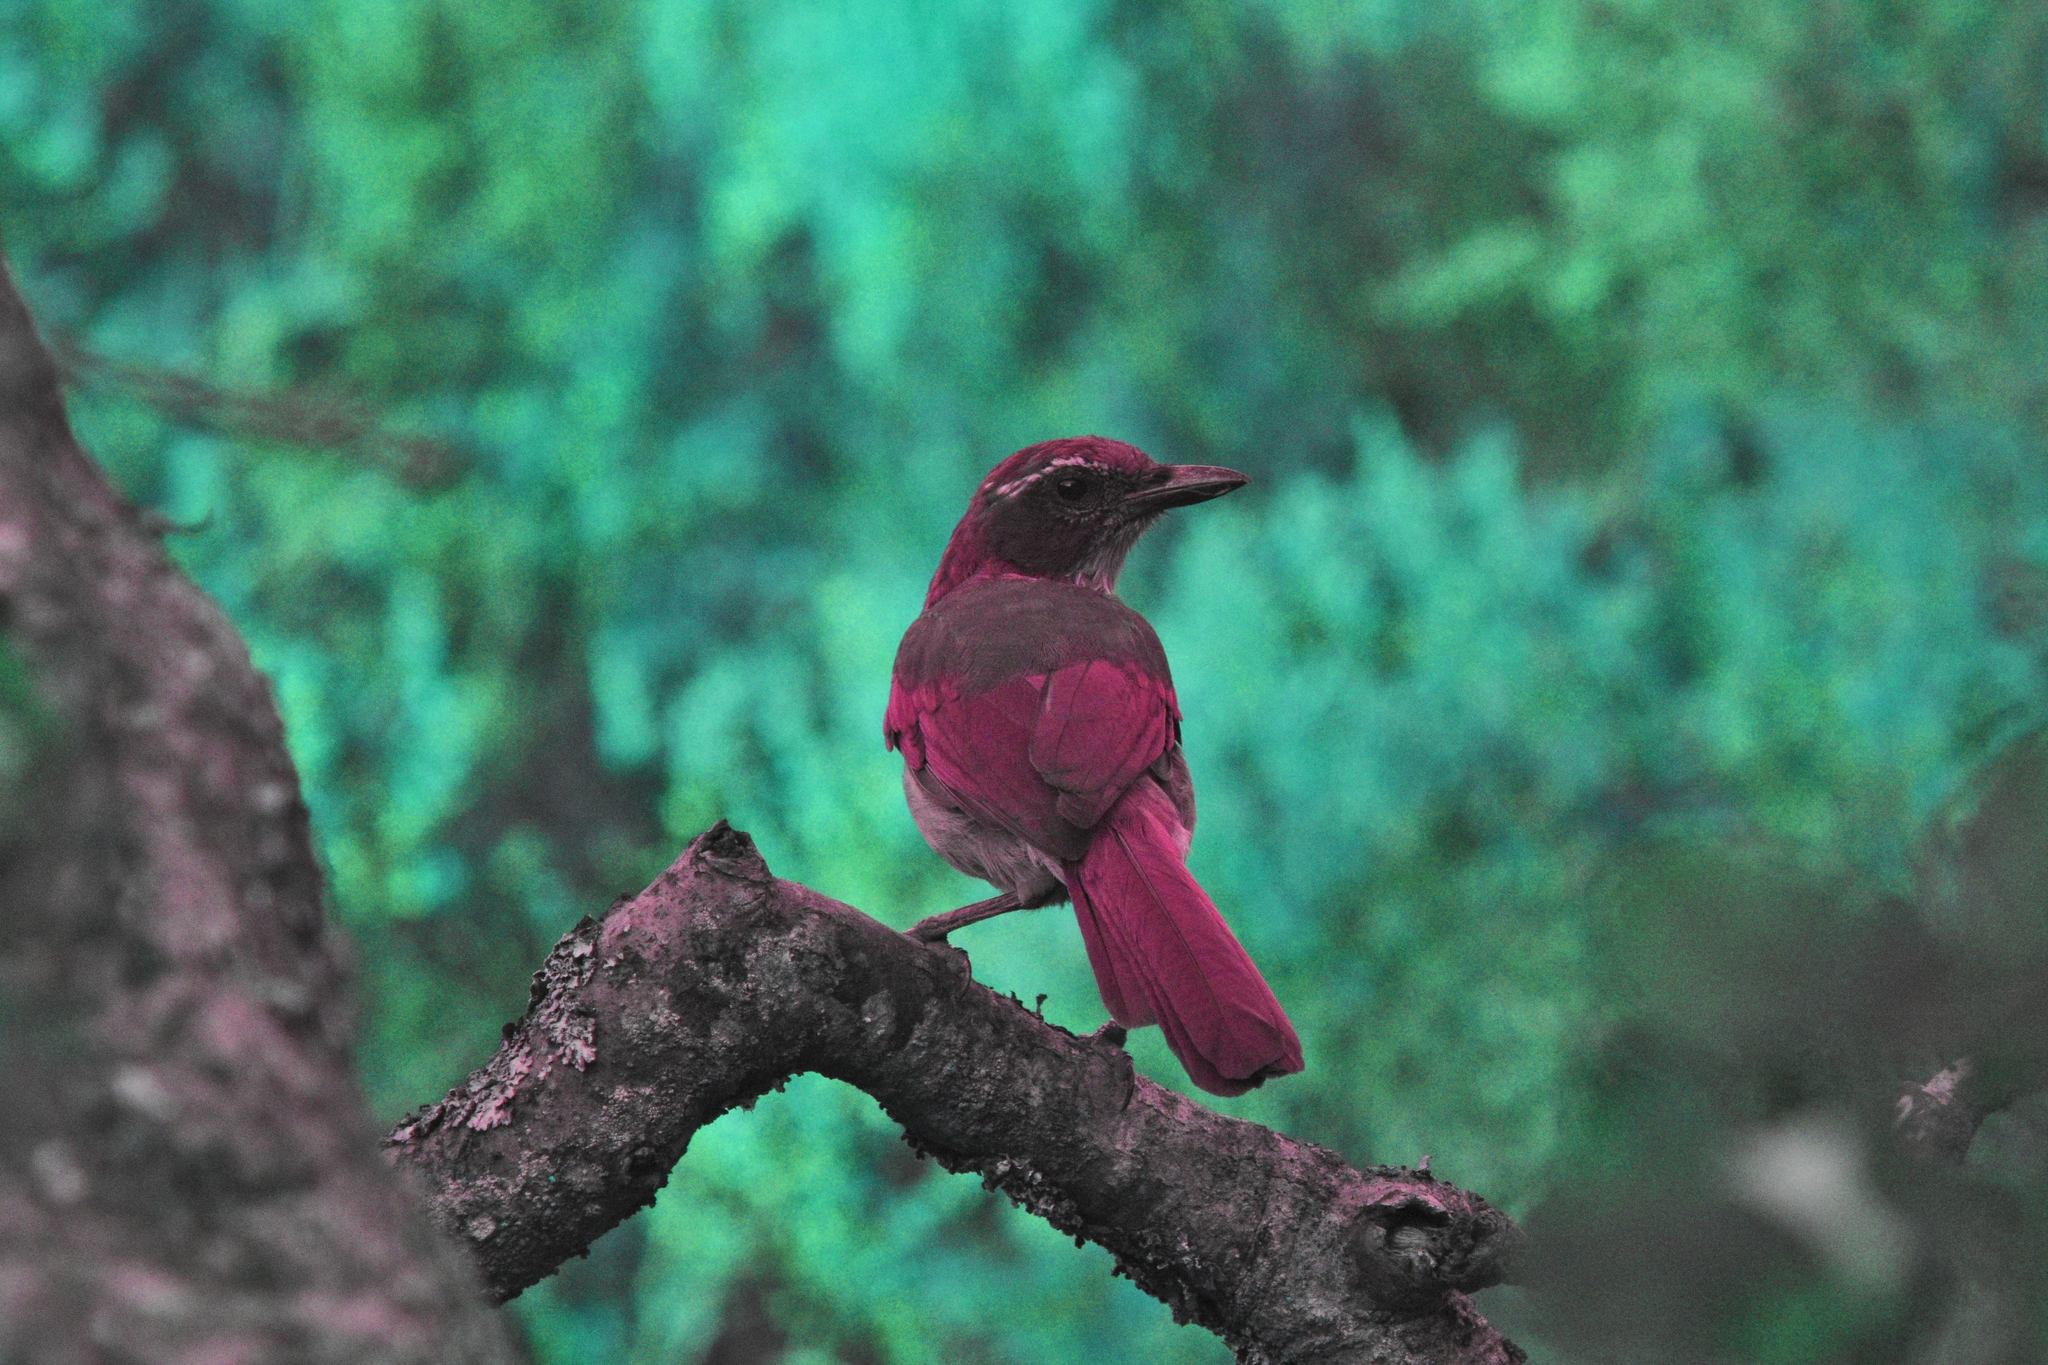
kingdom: Animalia
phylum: Chordata
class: Aves
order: Passeriformes
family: Corvidae
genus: Aphelocoma
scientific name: Aphelocoma californica
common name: California scrub-jay
